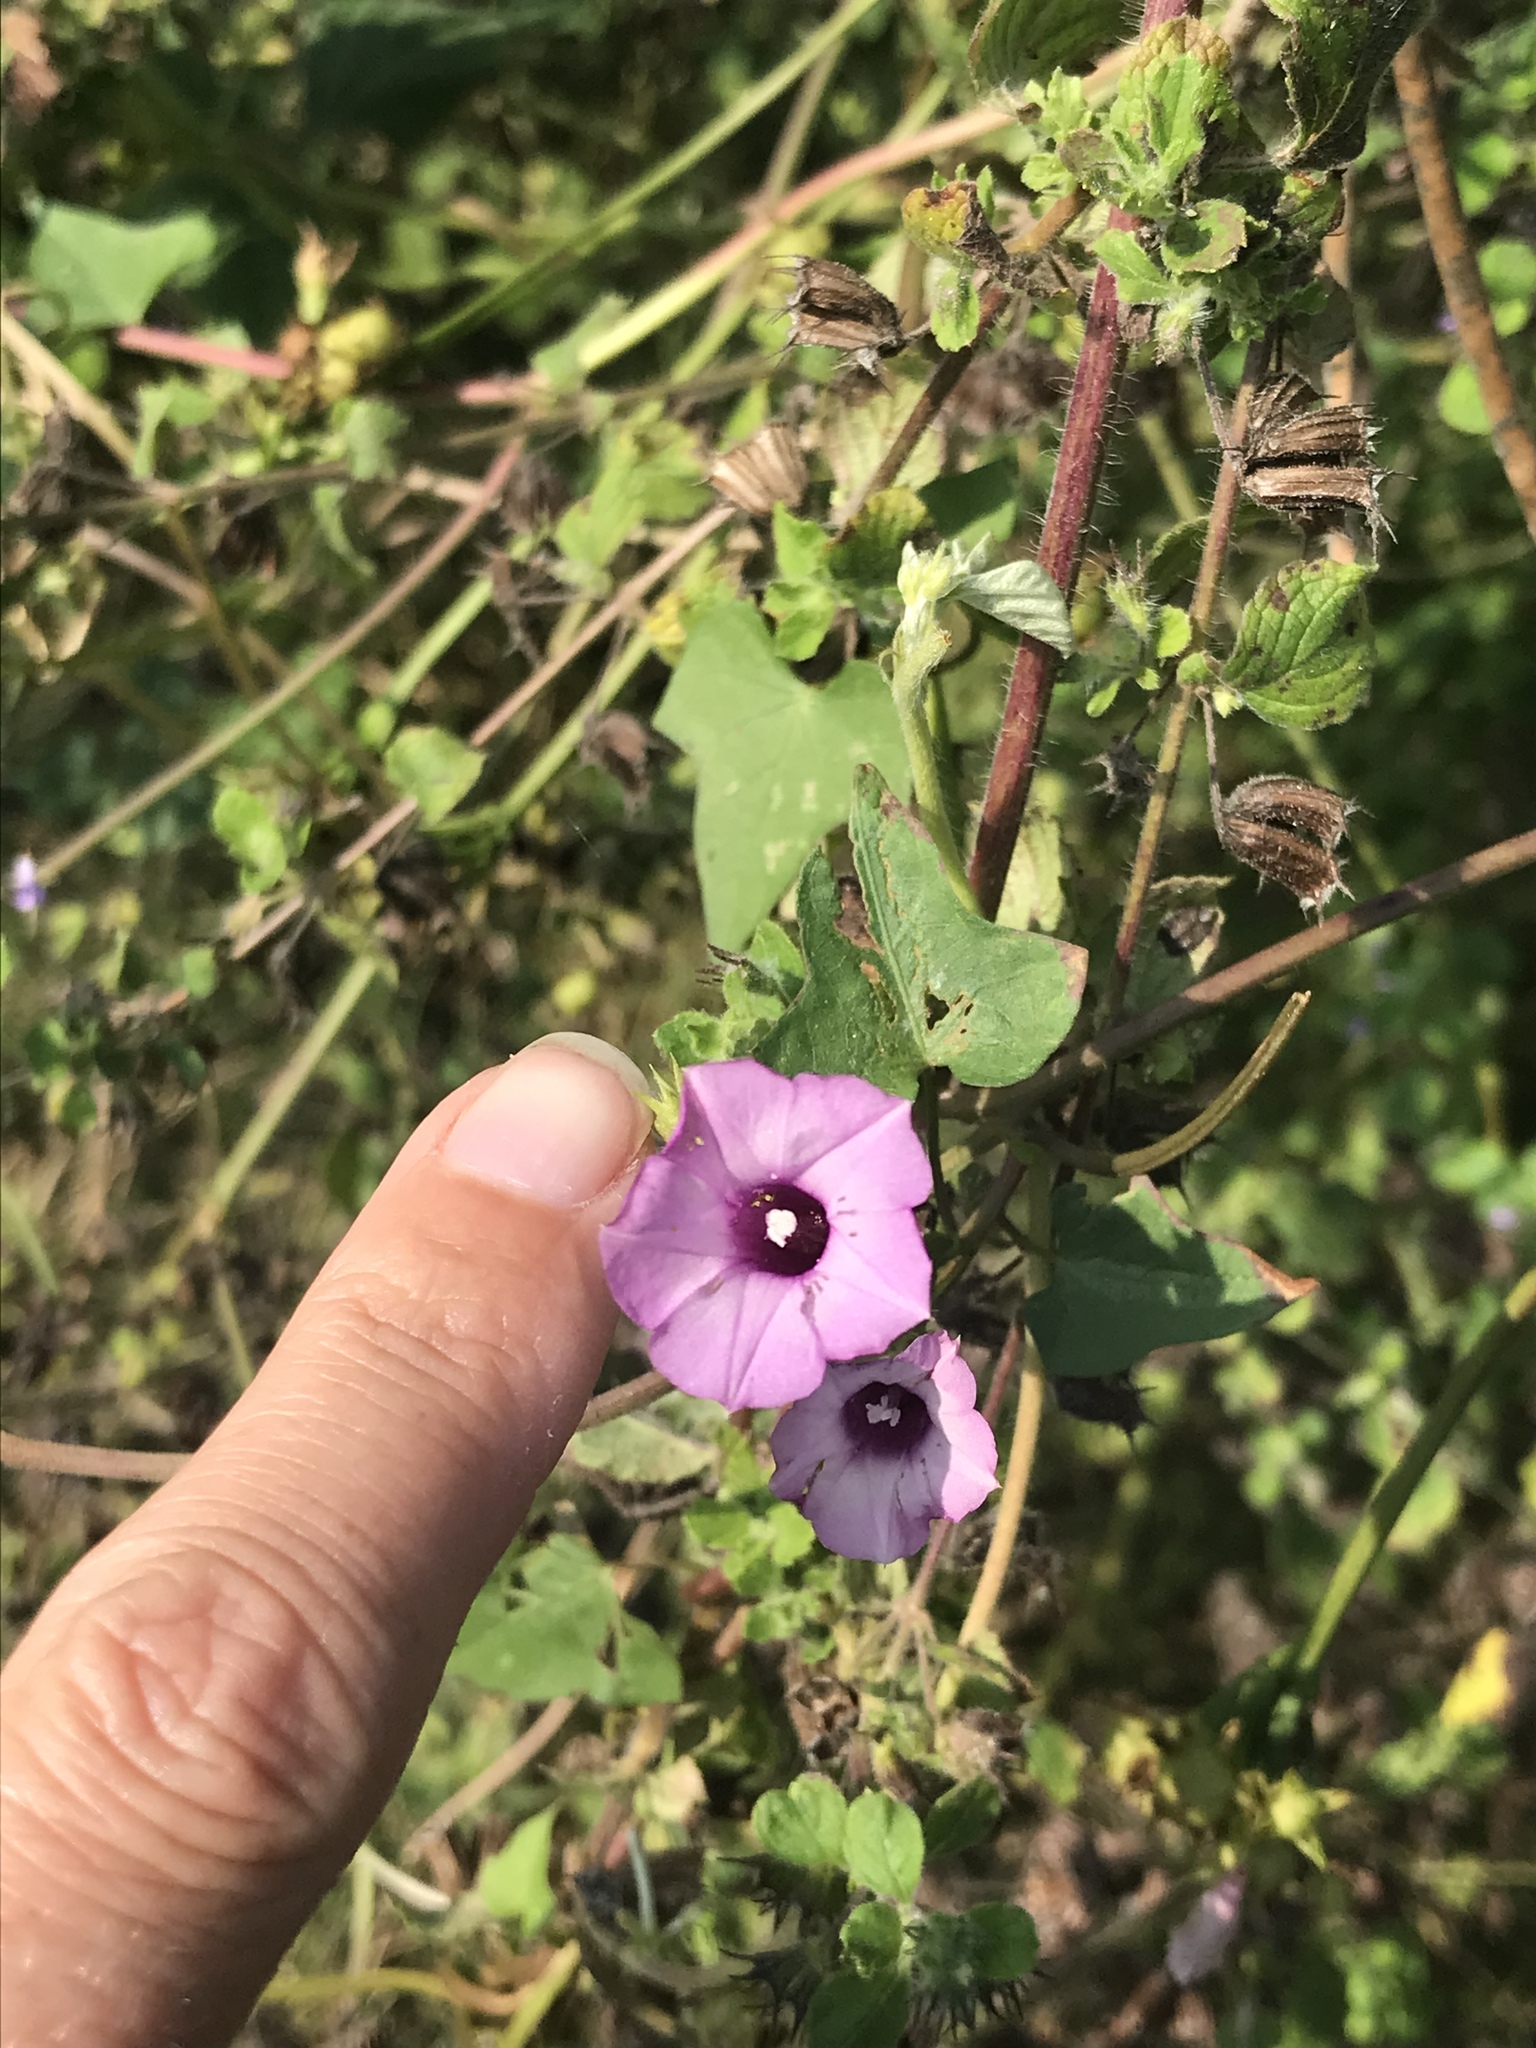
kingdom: Plantae
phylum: Tracheophyta
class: Magnoliopsida
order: Solanales
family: Convolvulaceae
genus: Ipomoea
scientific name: Ipomoea triloba
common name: Little-bell
